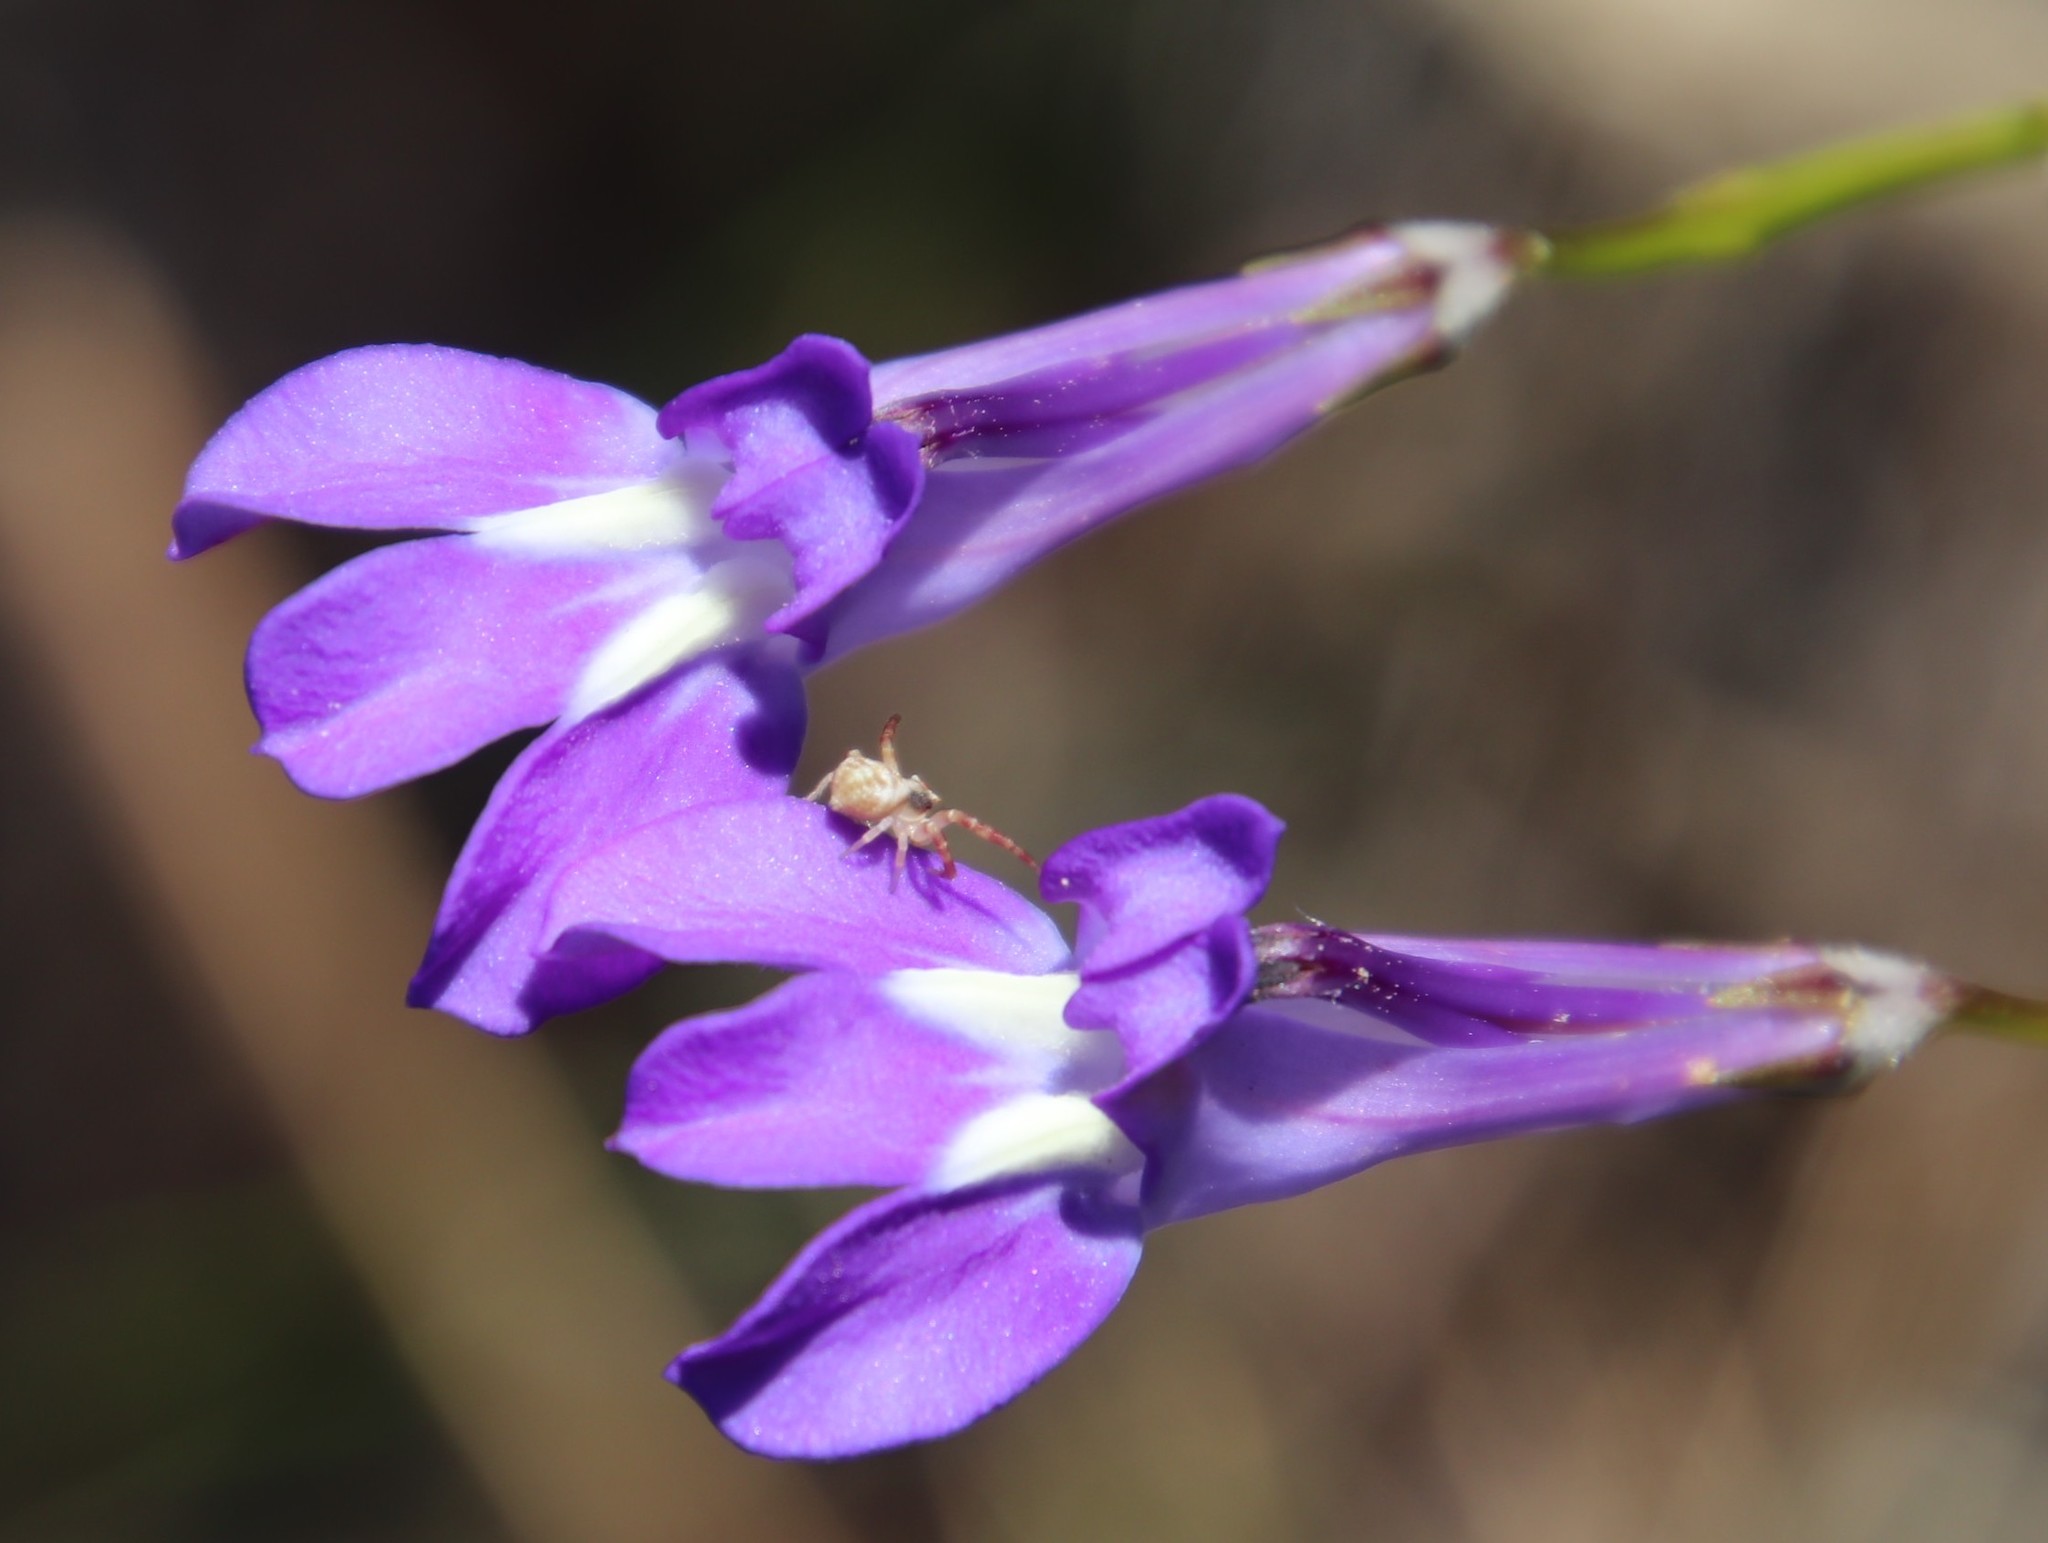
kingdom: Plantae
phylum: Tracheophyta
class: Magnoliopsida
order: Asterales
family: Campanulaceae
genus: Lobelia
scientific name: Lobelia coronopifolia
